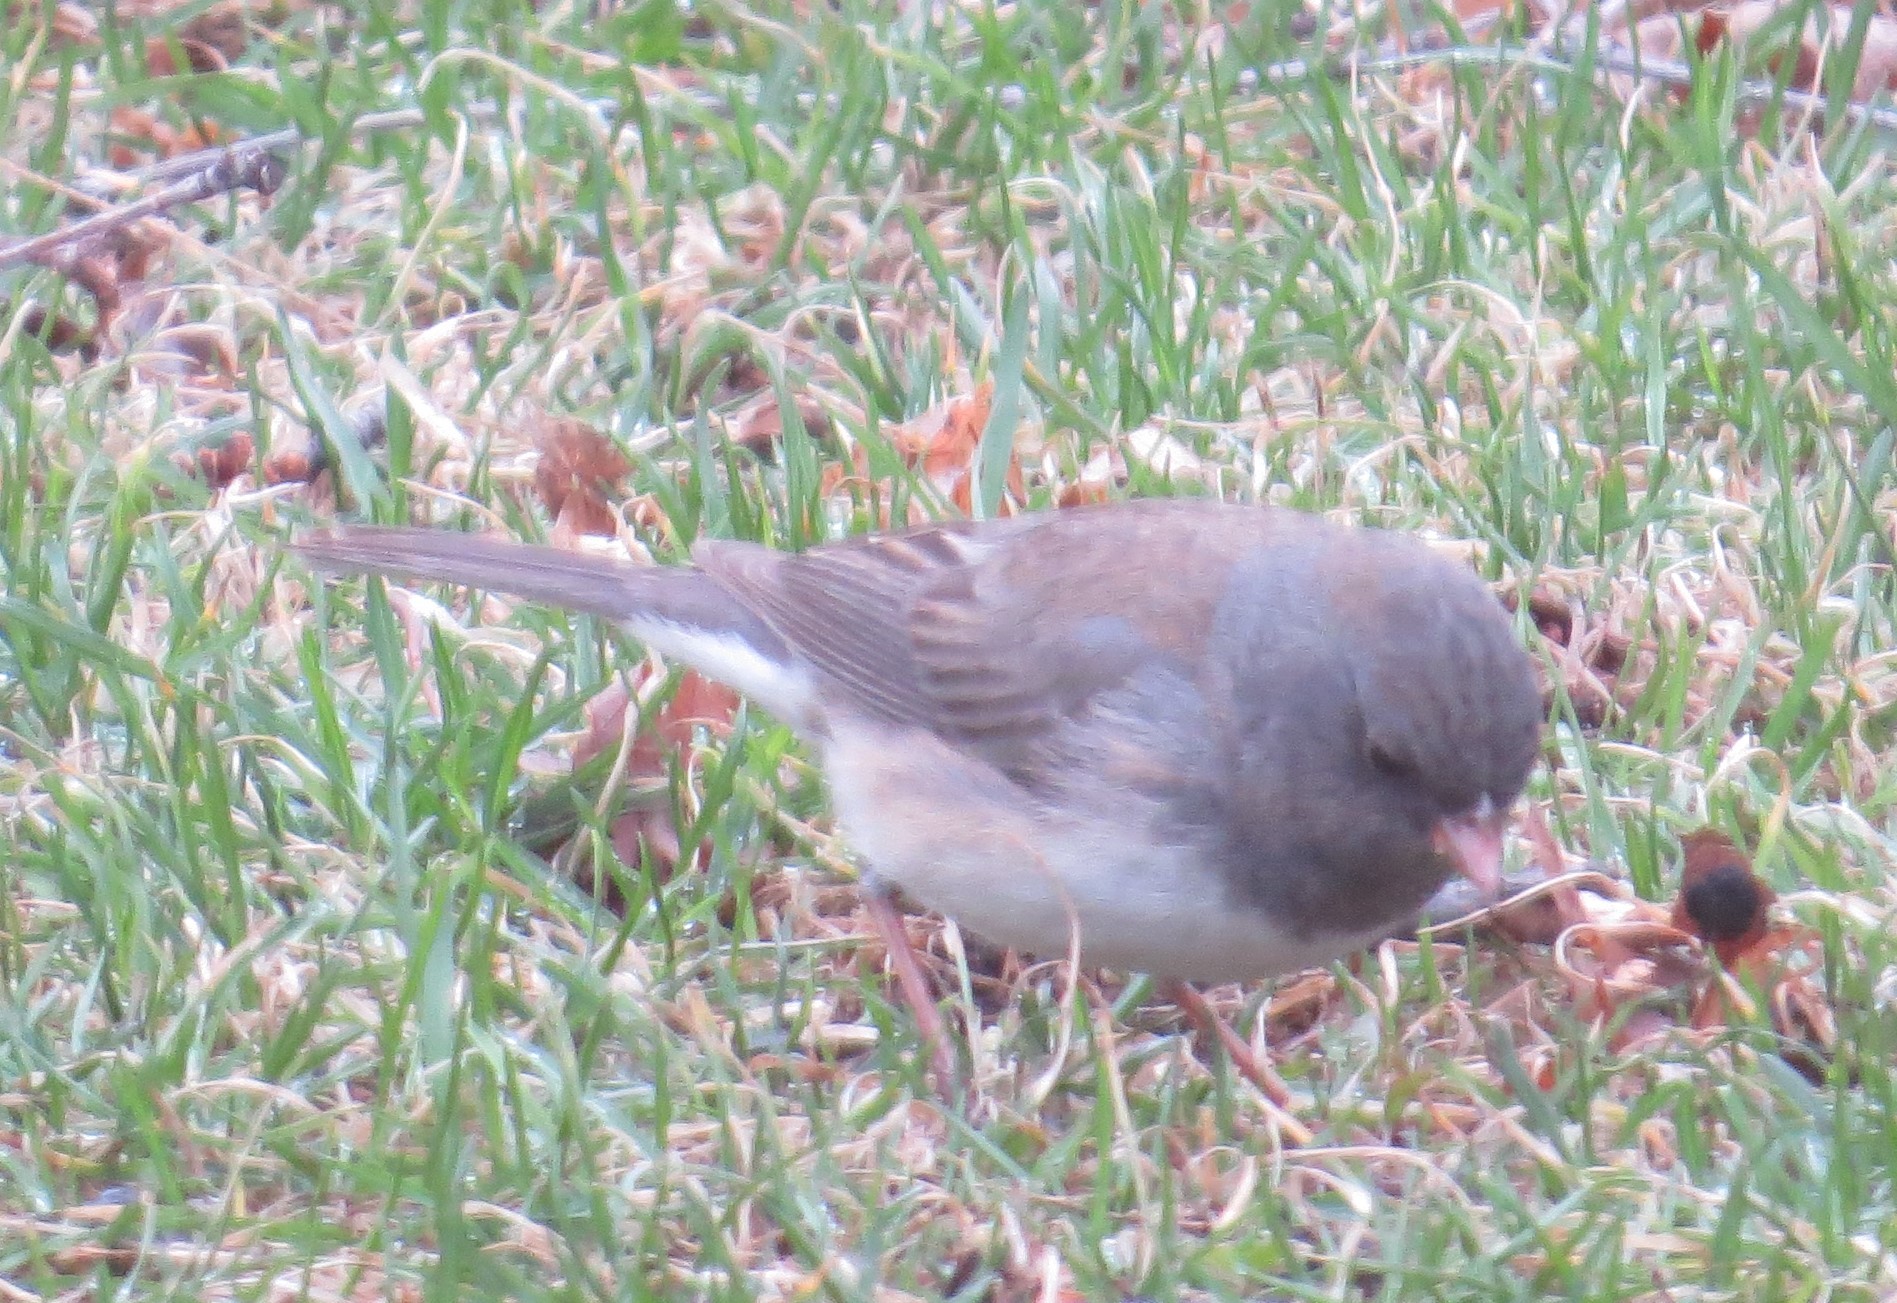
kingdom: Animalia
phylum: Chordata
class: Aves
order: Passeriformes
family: Passerellidae
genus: Junco
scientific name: Junco hyemalis
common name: Dark-eyed junco
